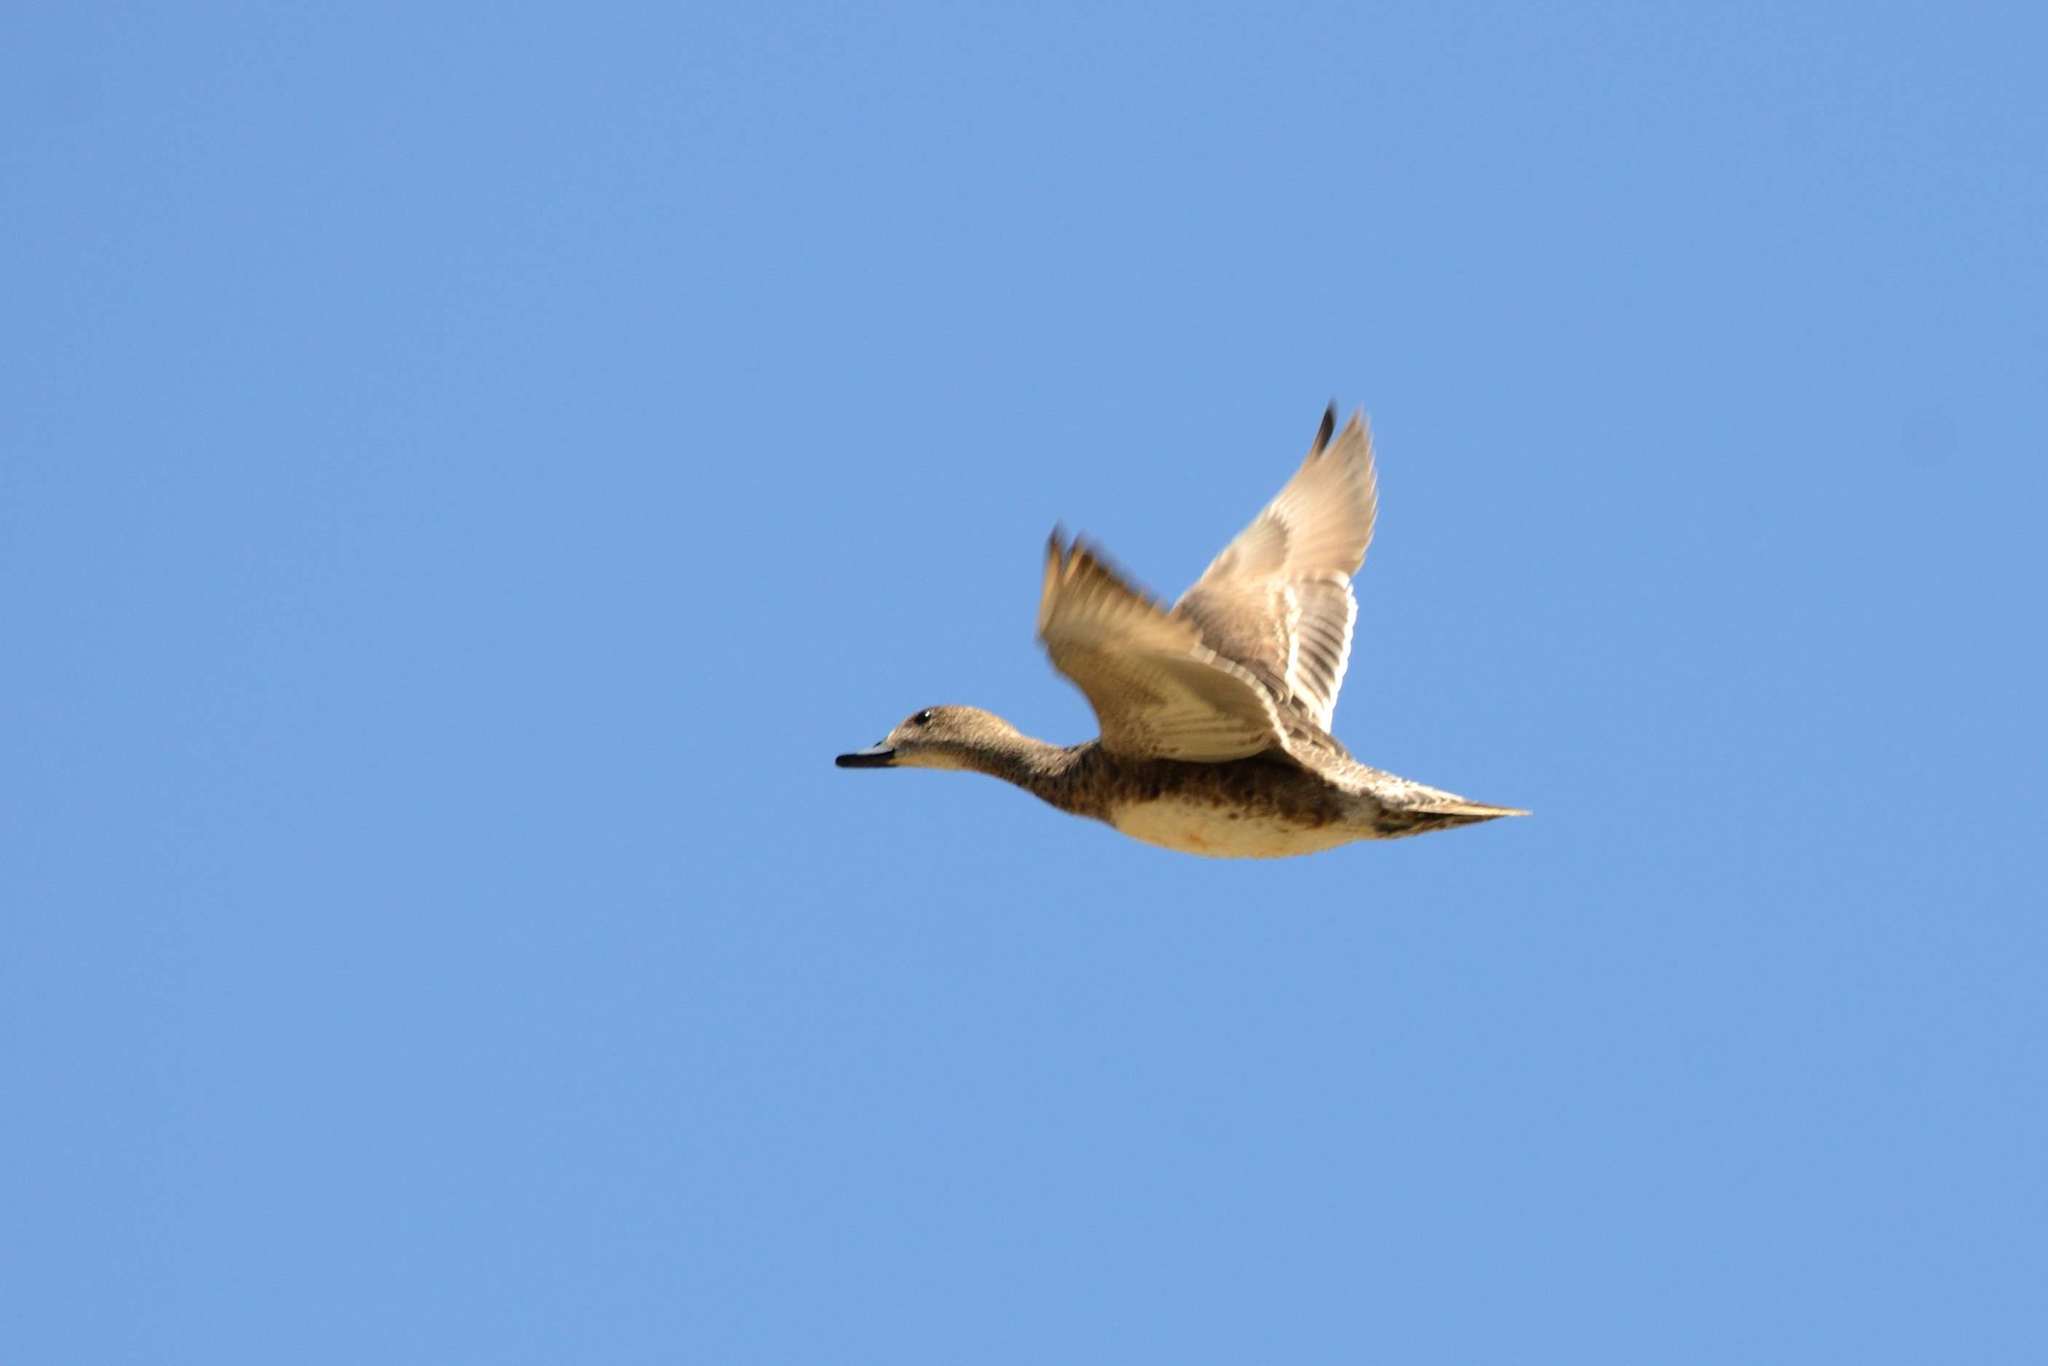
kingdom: Animalia
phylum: Chordata
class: Aves
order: Anseriformes
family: Anatidae
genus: Mareca
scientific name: Mareca penelope
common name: Eurasian wigeon
